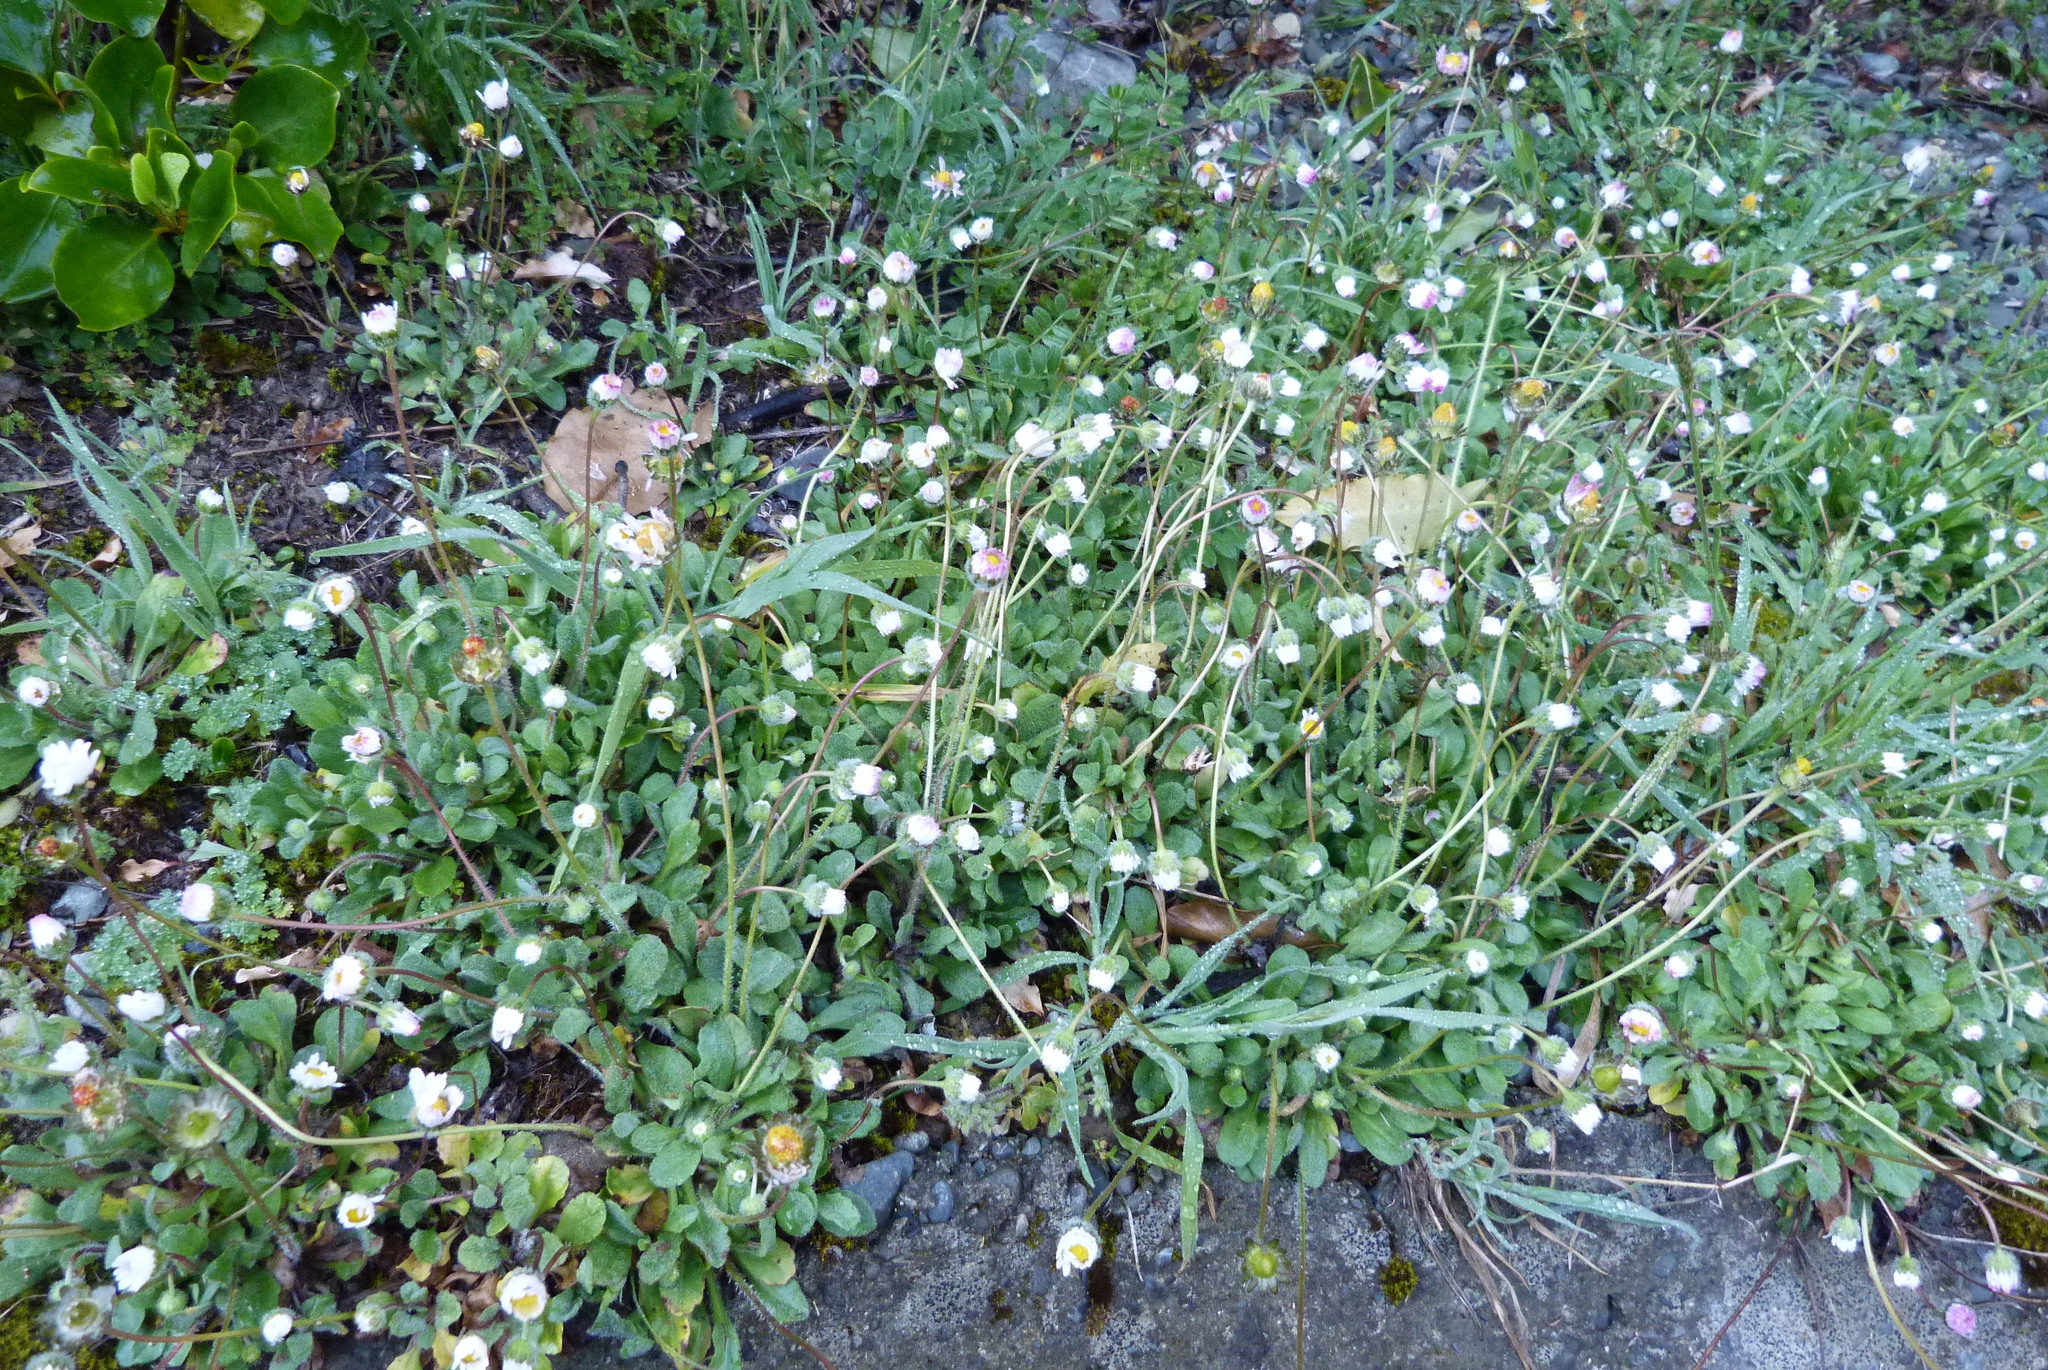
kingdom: Plantae
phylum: Tracheophyta
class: Magnoliopsida
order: Asterales
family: Asteraceae
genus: Bellis
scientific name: Bellis perennis
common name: Lawndaisy
